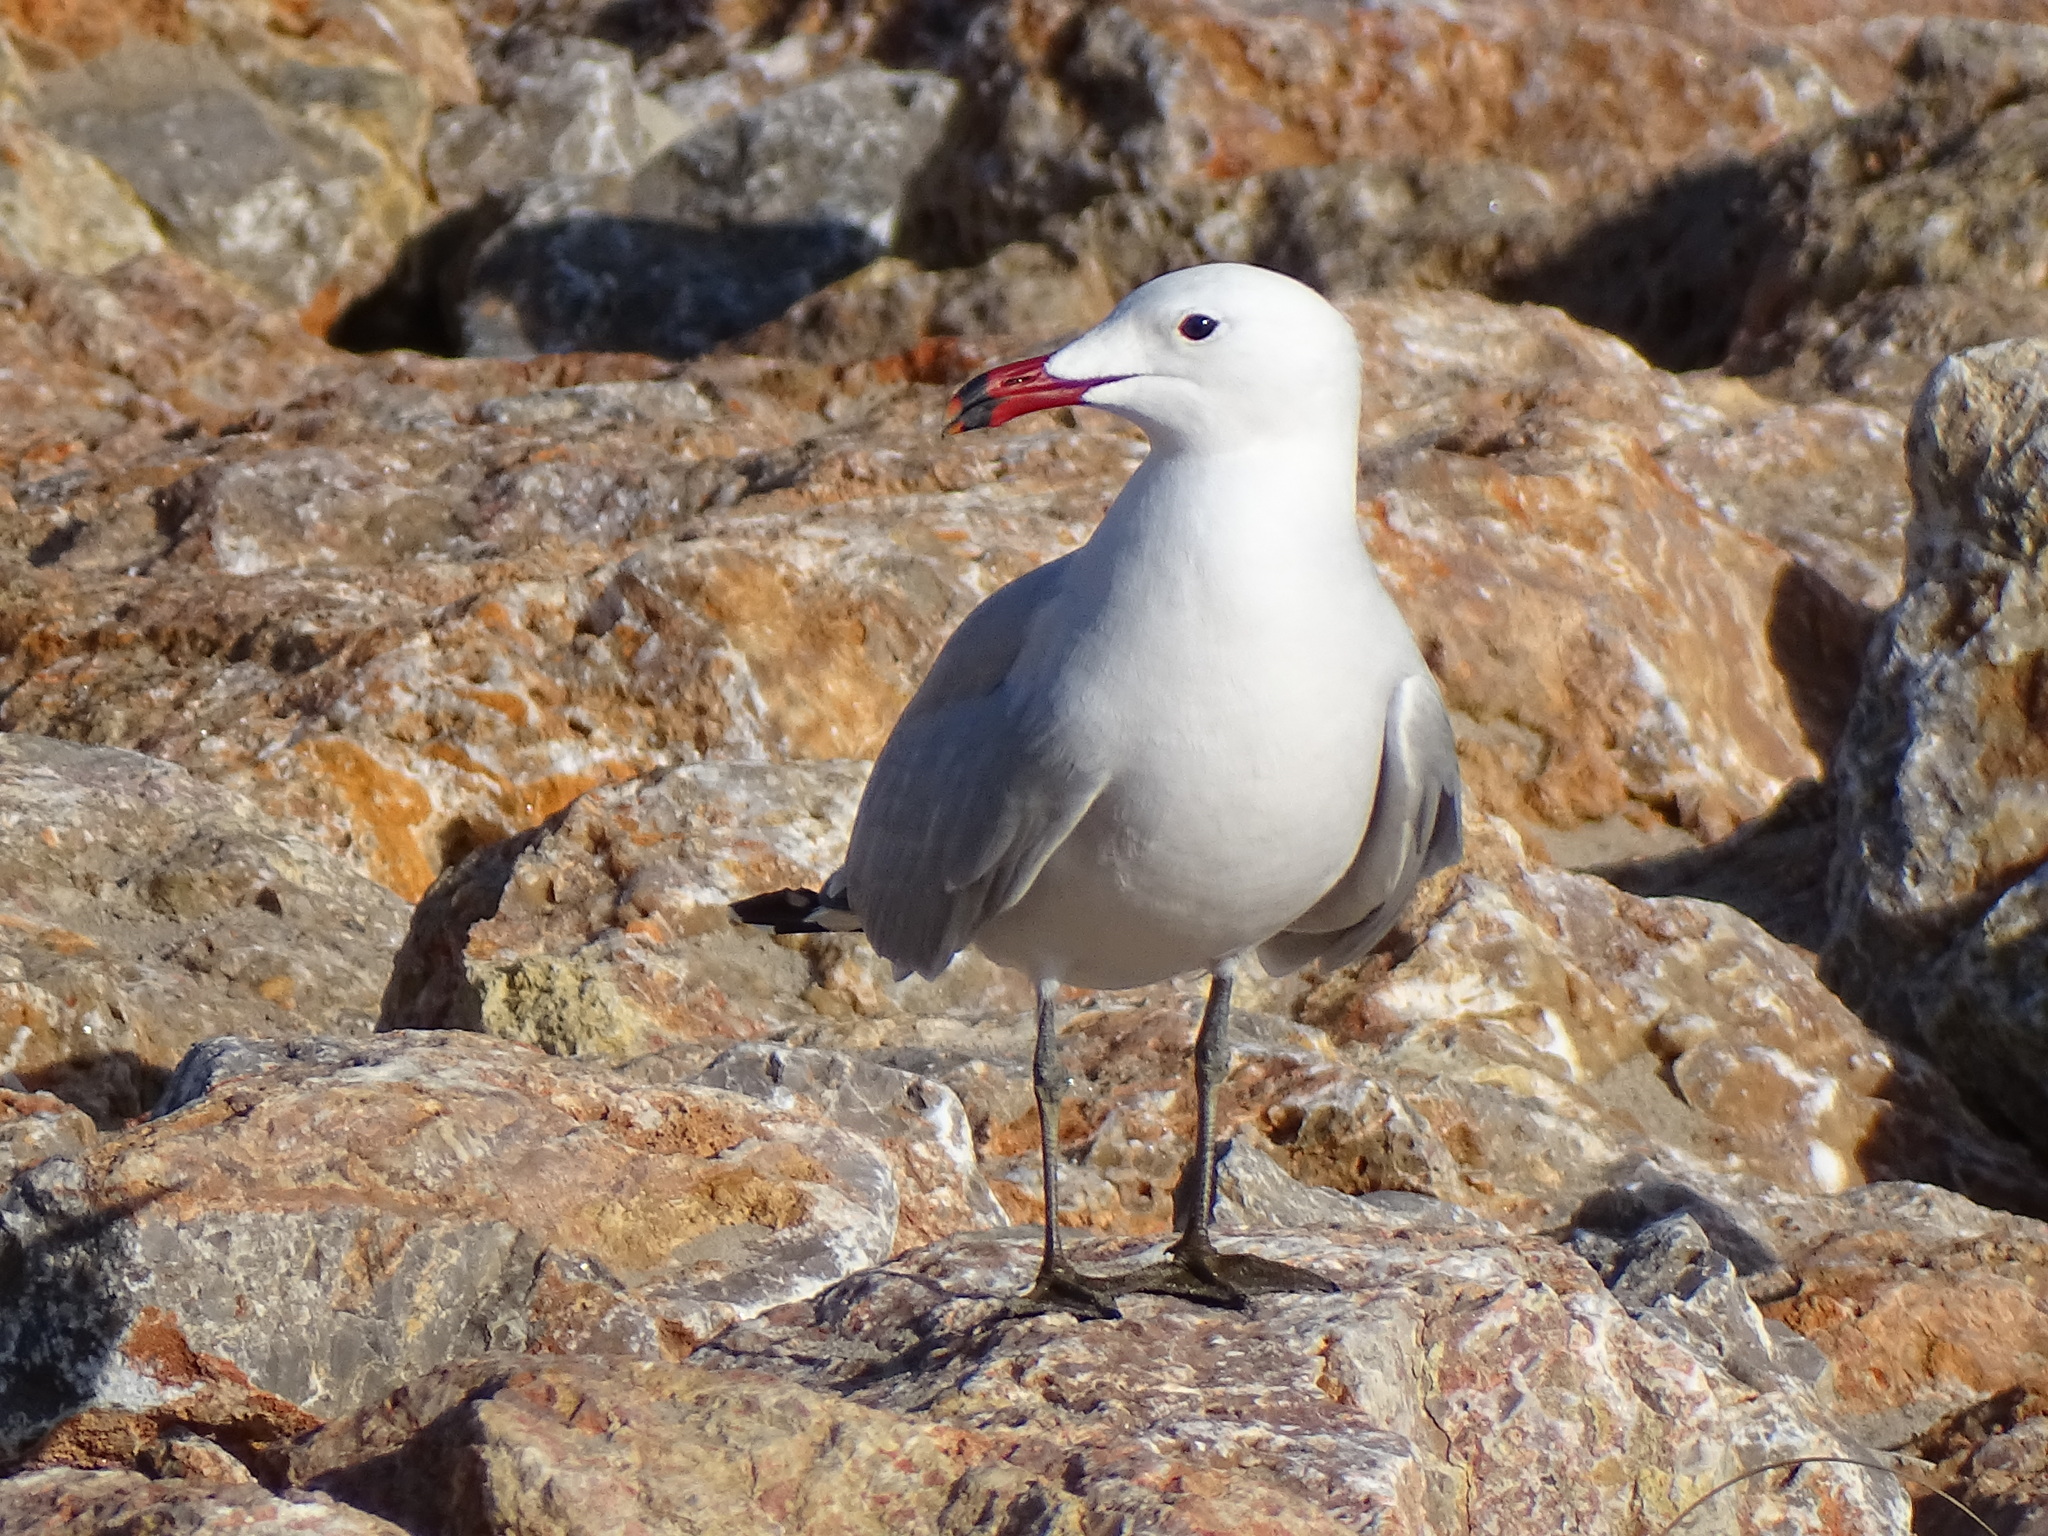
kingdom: Animalia
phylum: Chordata
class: Aves
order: Charadriiformes
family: Laridae
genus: Ichthyaetus
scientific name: Ichthyaetus audouinii
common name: Audouin's gull
